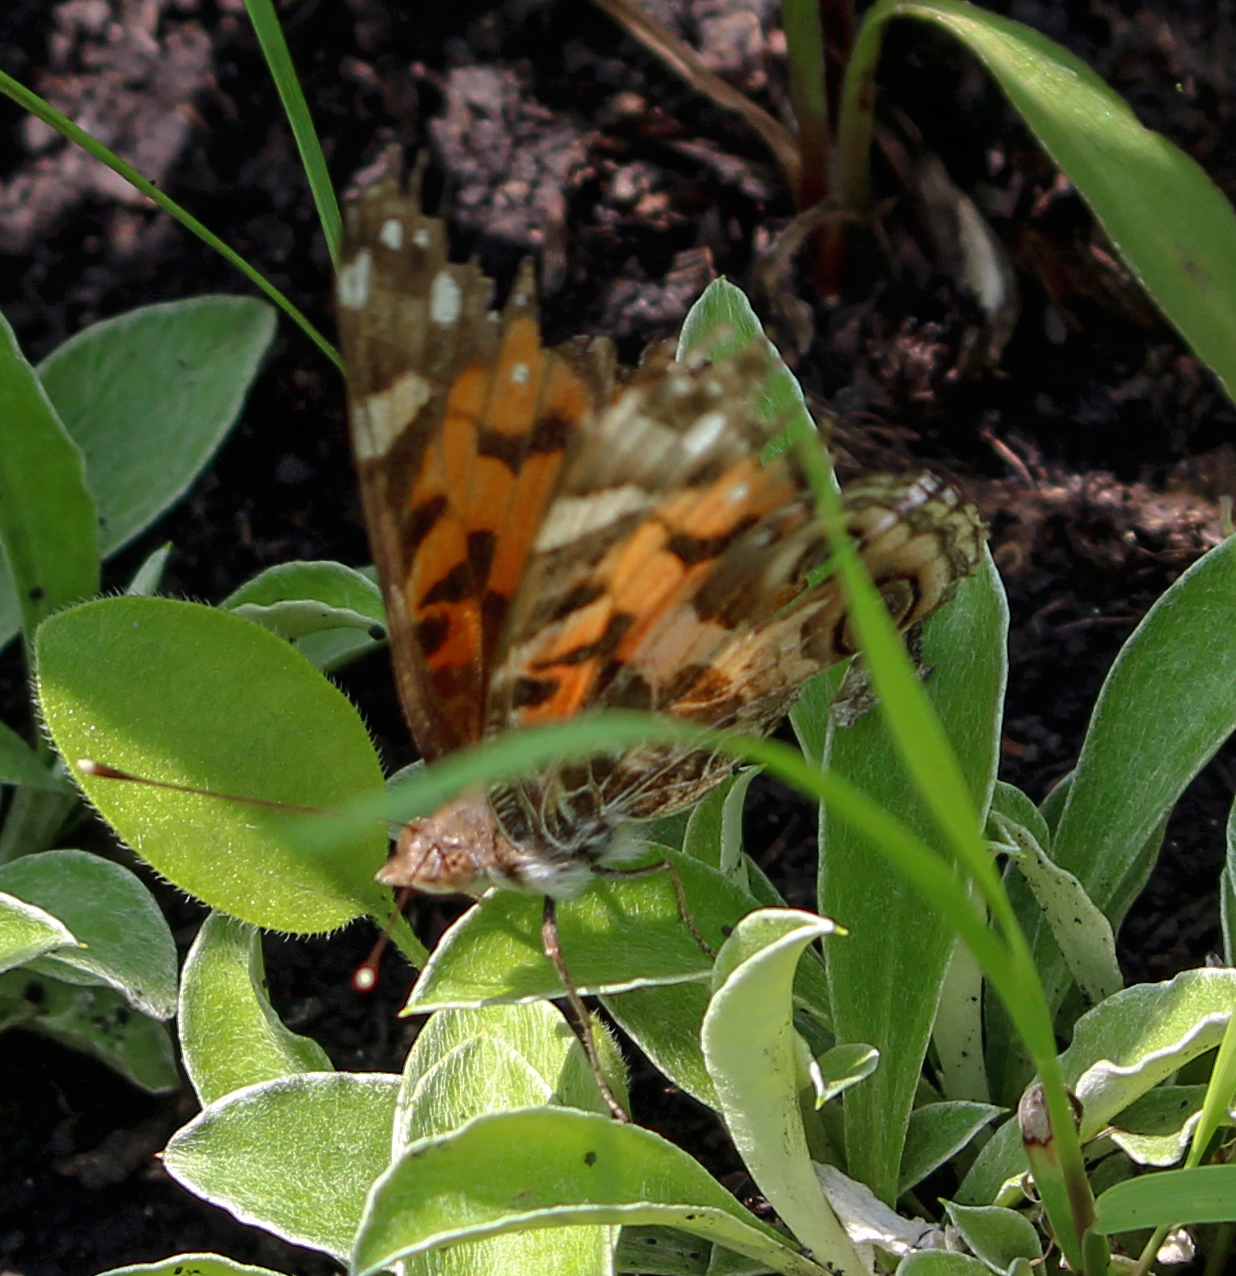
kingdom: Animalia
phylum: Arthropoda
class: Insecta
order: Lepidoptera
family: Nymphalidae
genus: Vanessa
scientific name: Vanessa virginiensis
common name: American lady
